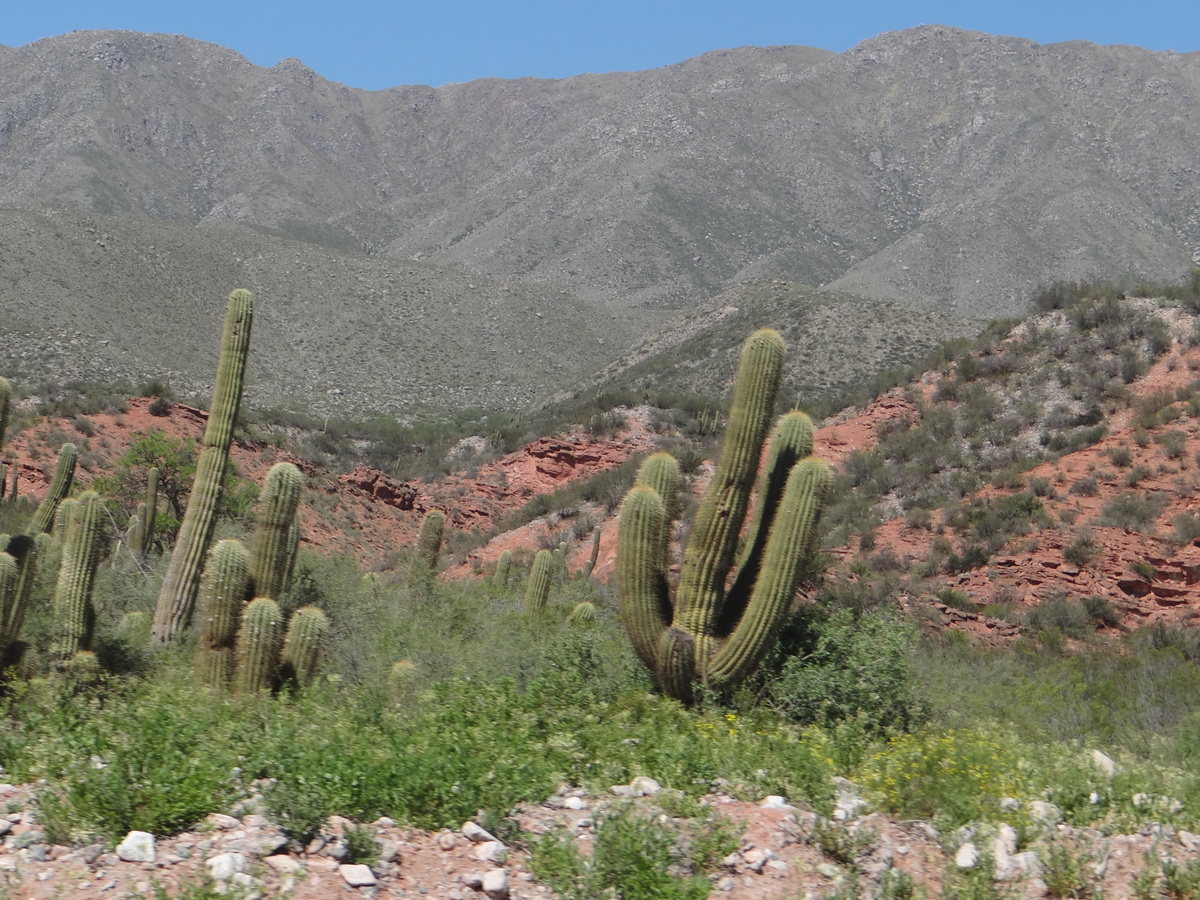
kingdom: Plantae
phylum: Tracheophyta
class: Magnoliopsida
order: Caryophyllales
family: Cactaceae
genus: Leucostele
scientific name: Leucostele terscheckii
